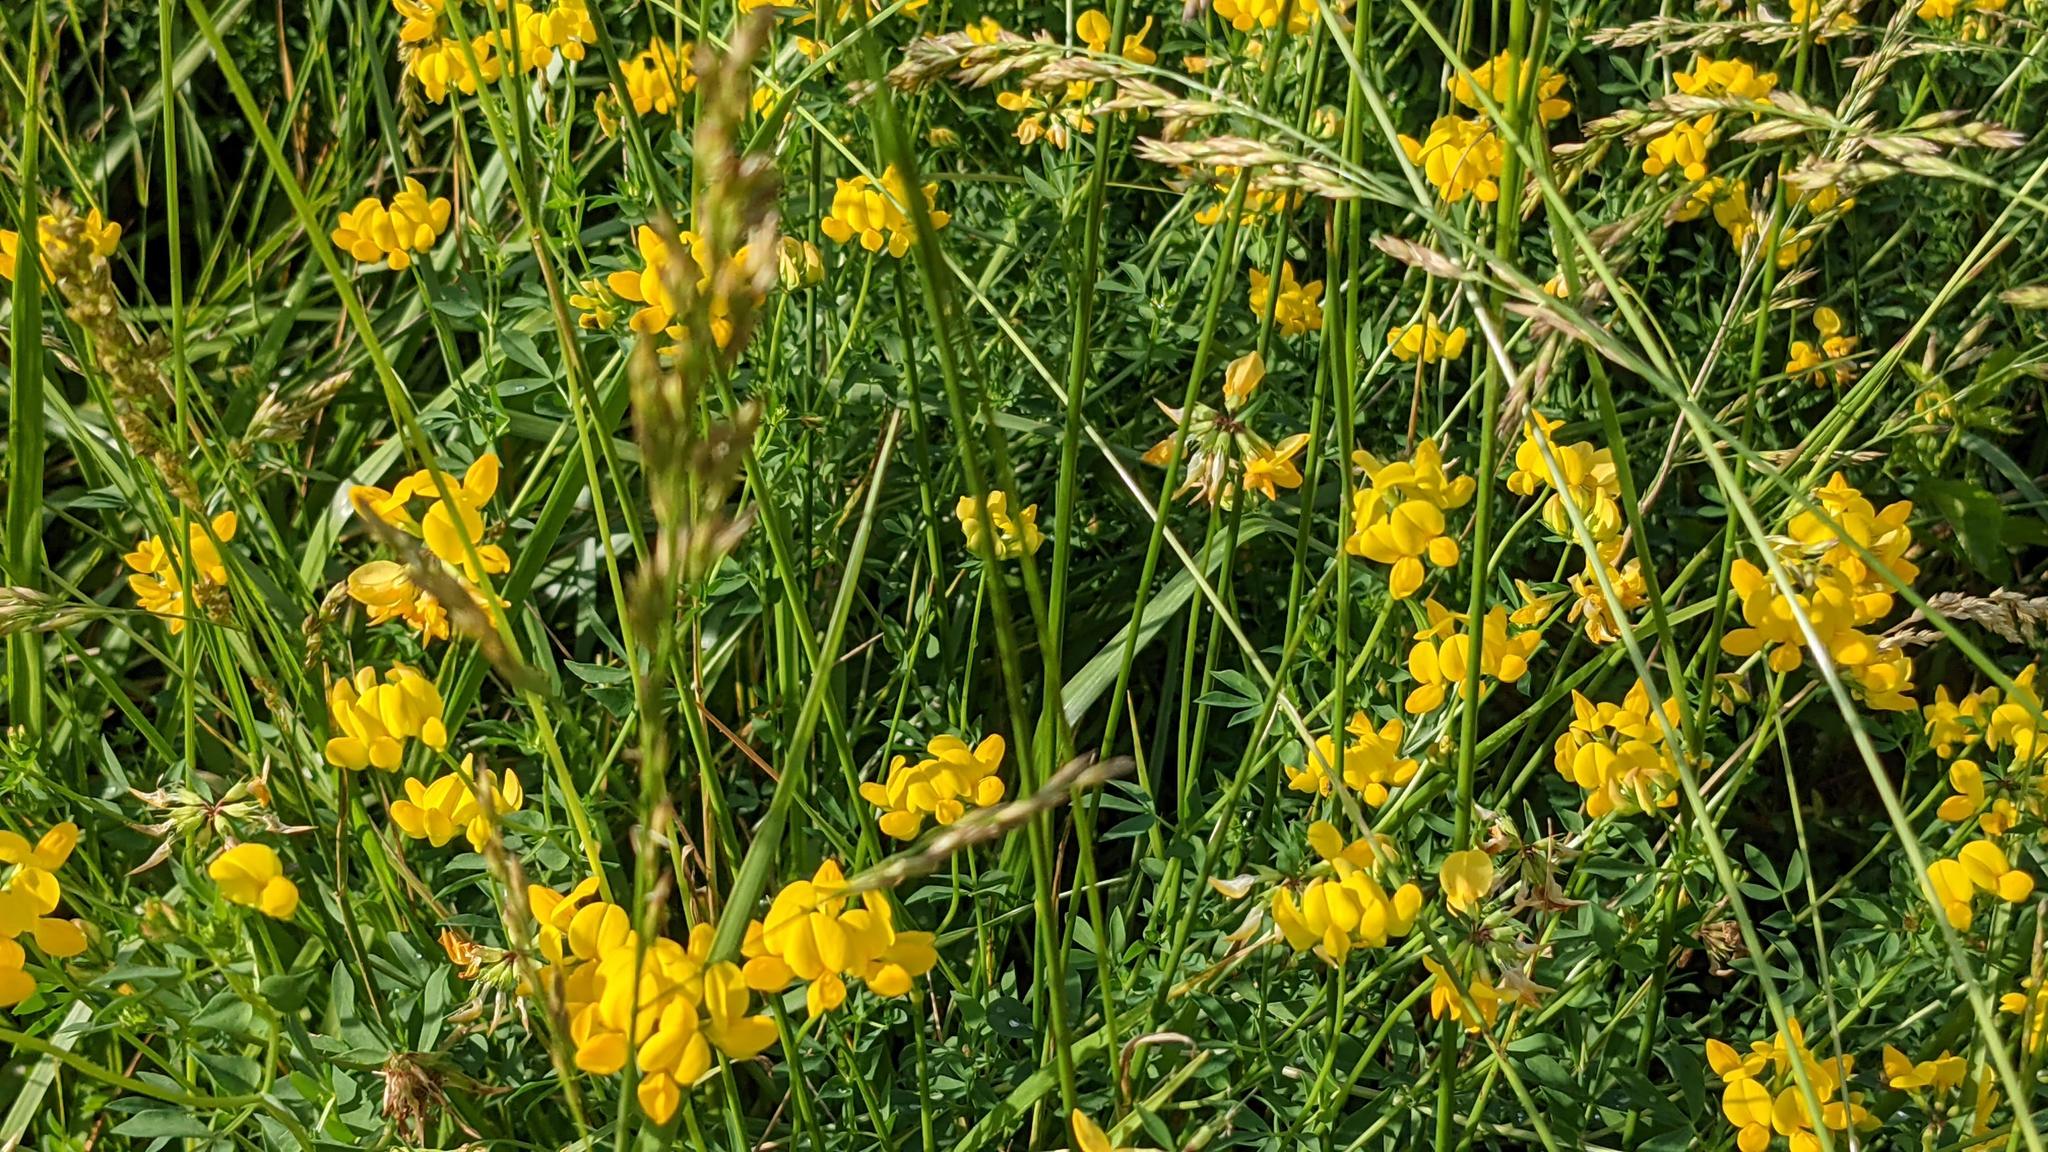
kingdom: Plantae
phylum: Tracheophyta
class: Magnoliopsida
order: Fabales
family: Fabaceae
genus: Lotus
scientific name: Lotus corniculatus
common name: Common bird's-foot-trefoil
